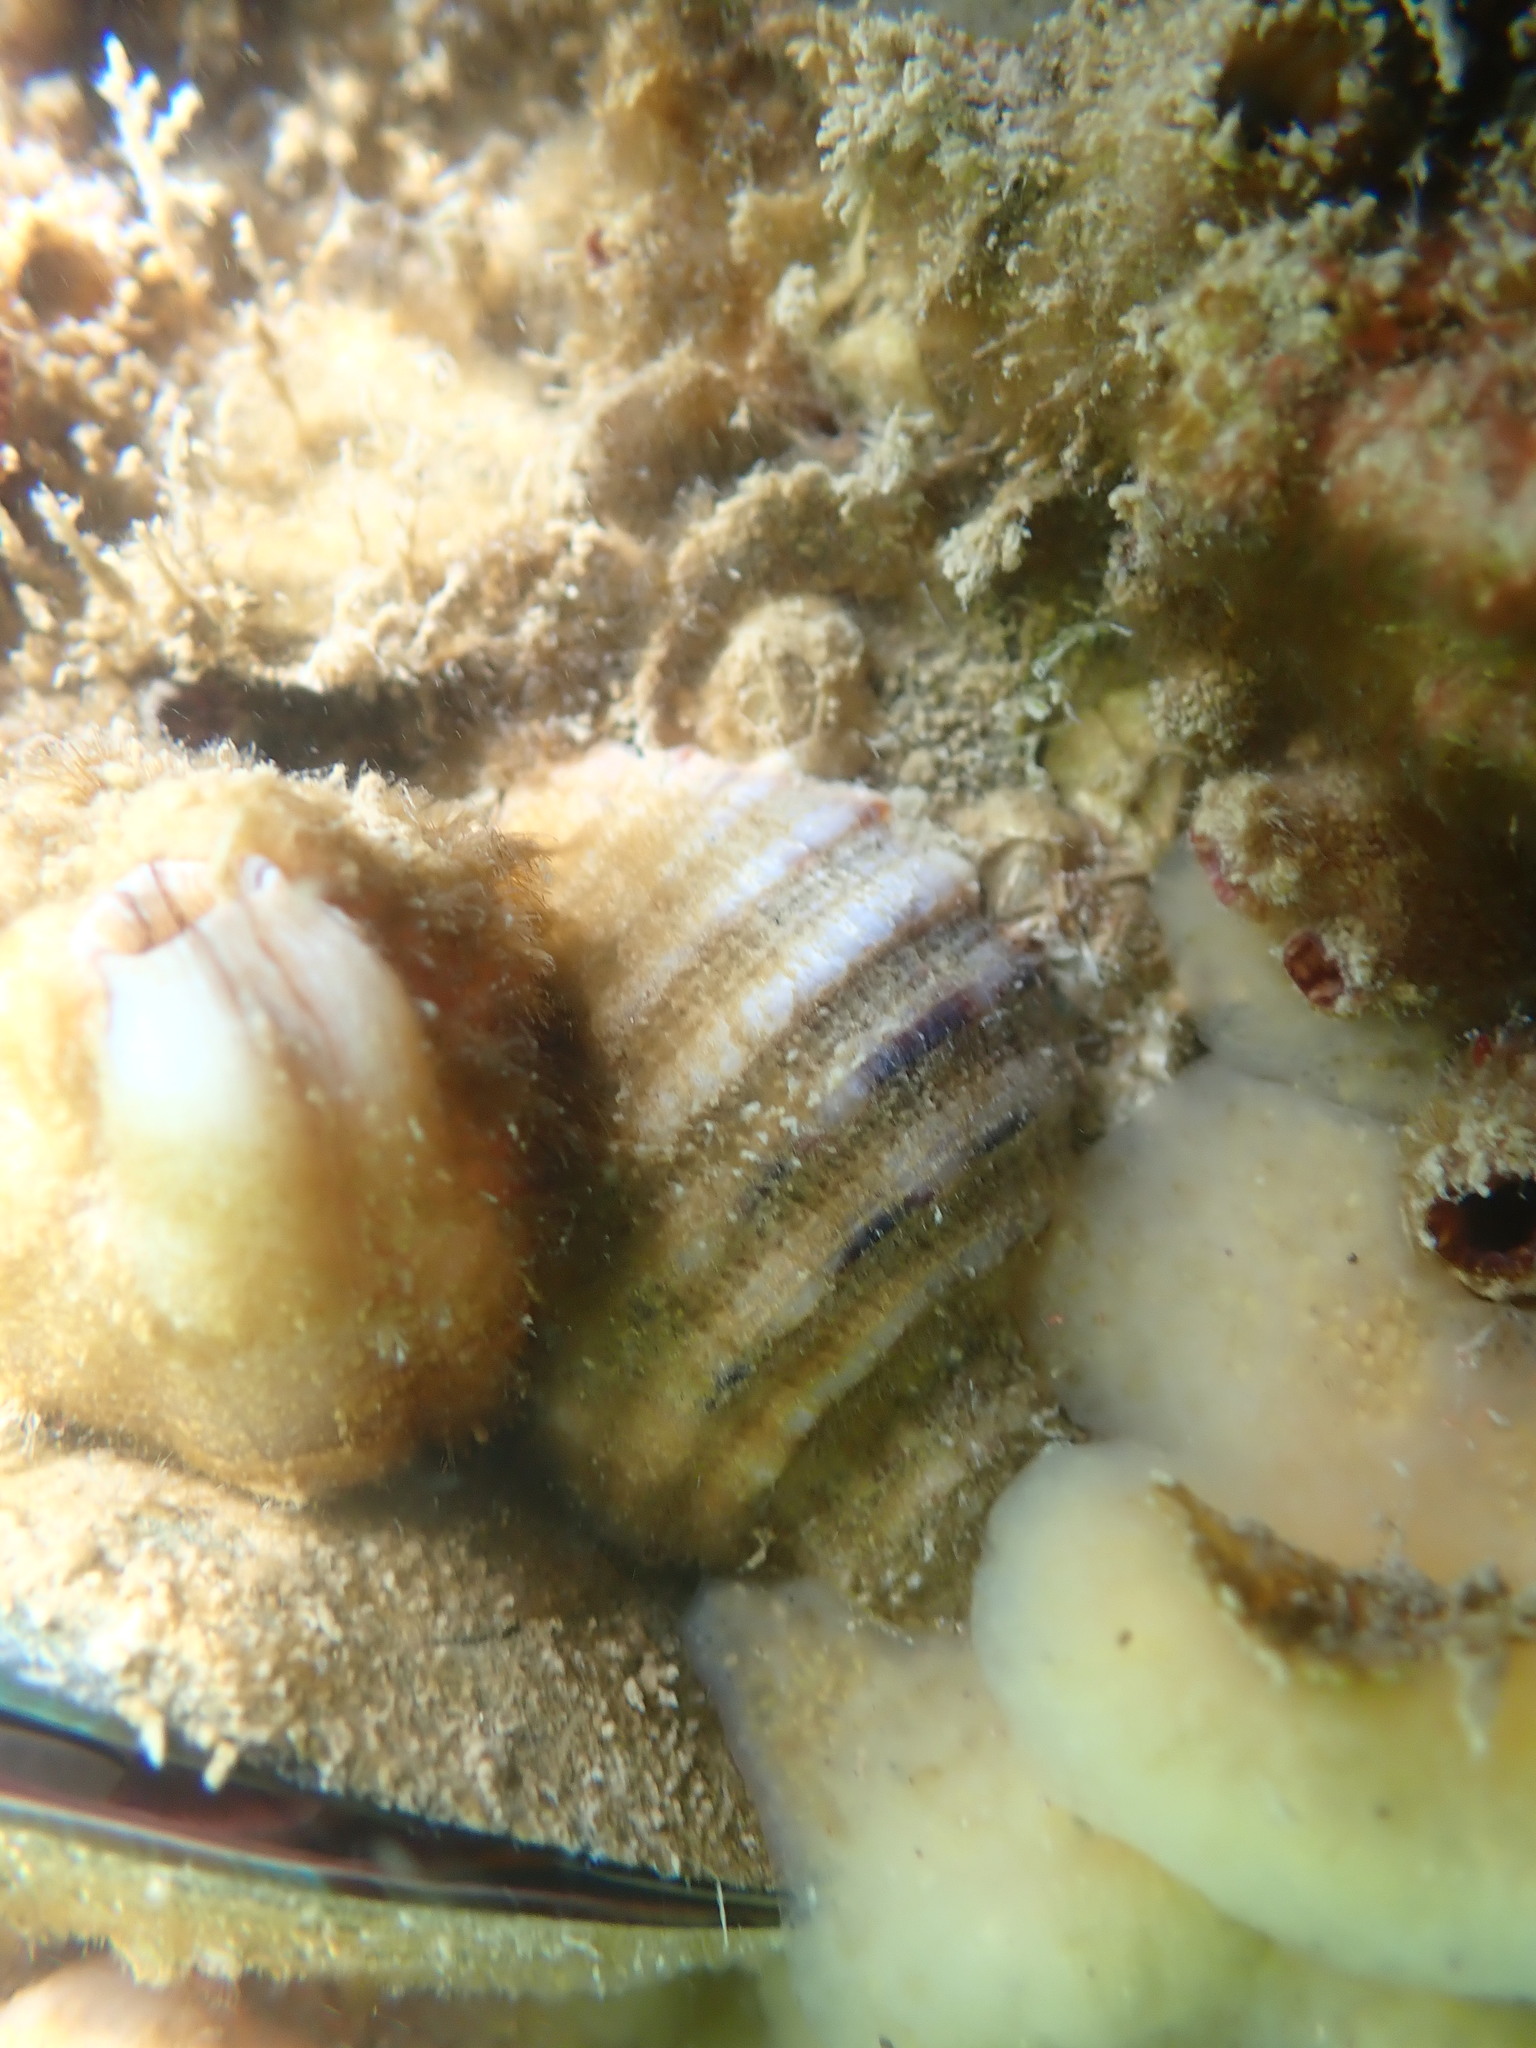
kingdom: Animalia
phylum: Mollusca
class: Gastropoda
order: Neogastropoda
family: Muricidae
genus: Dicathais
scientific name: Dicathais orbita
